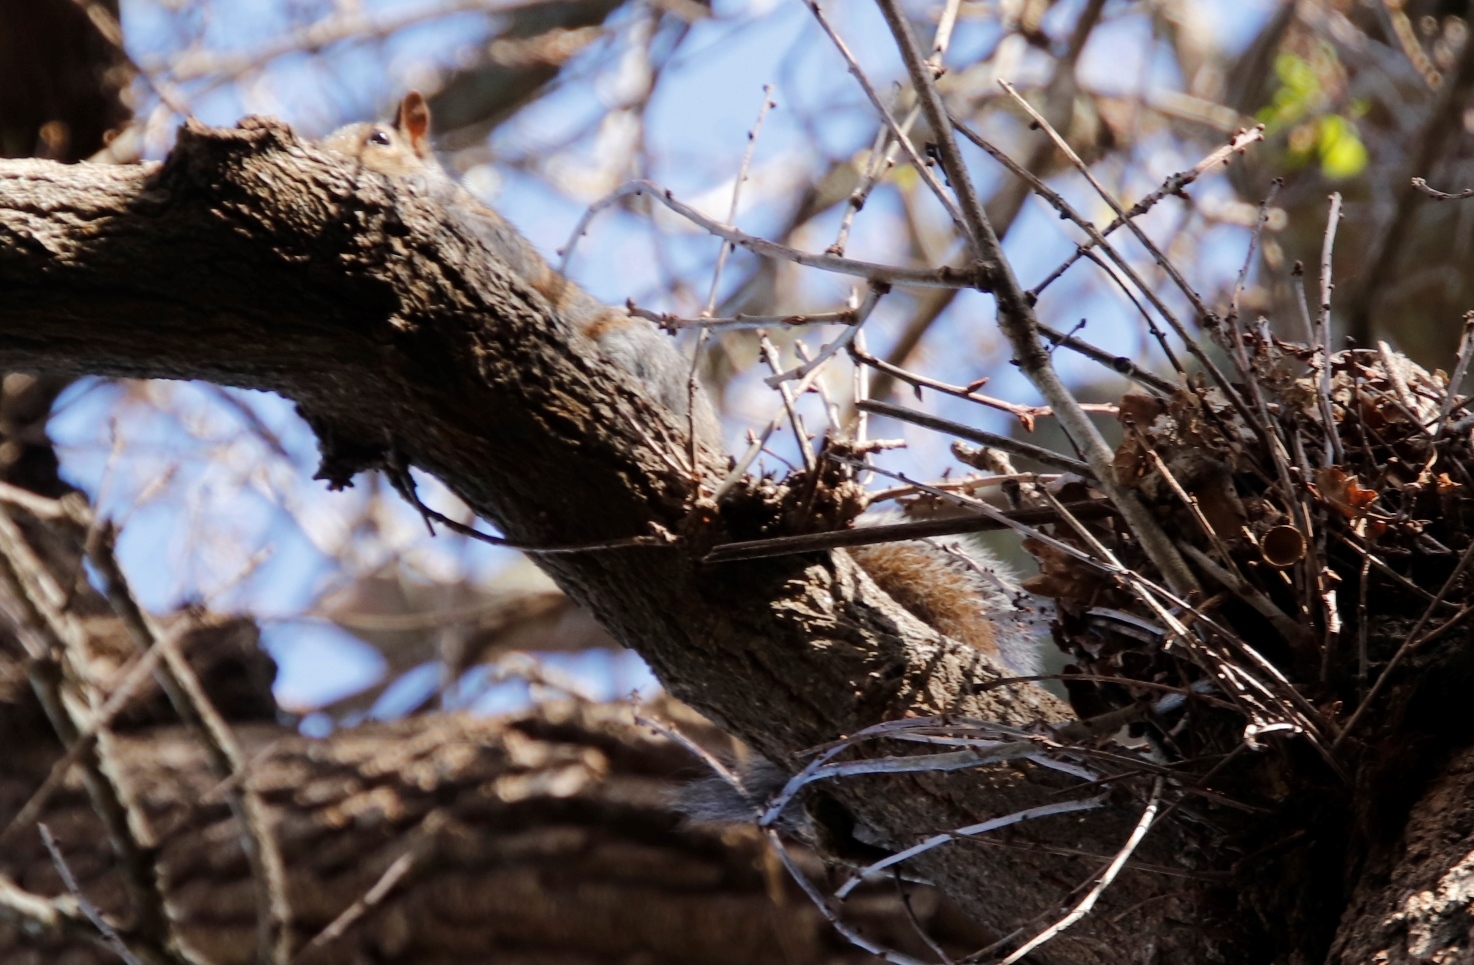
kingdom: Animalia
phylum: Chordata
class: Mammalia
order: Rodentia
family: Sciuridae
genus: Sciurus
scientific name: Sciurus carolinensis
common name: Eastern gray squirrel
